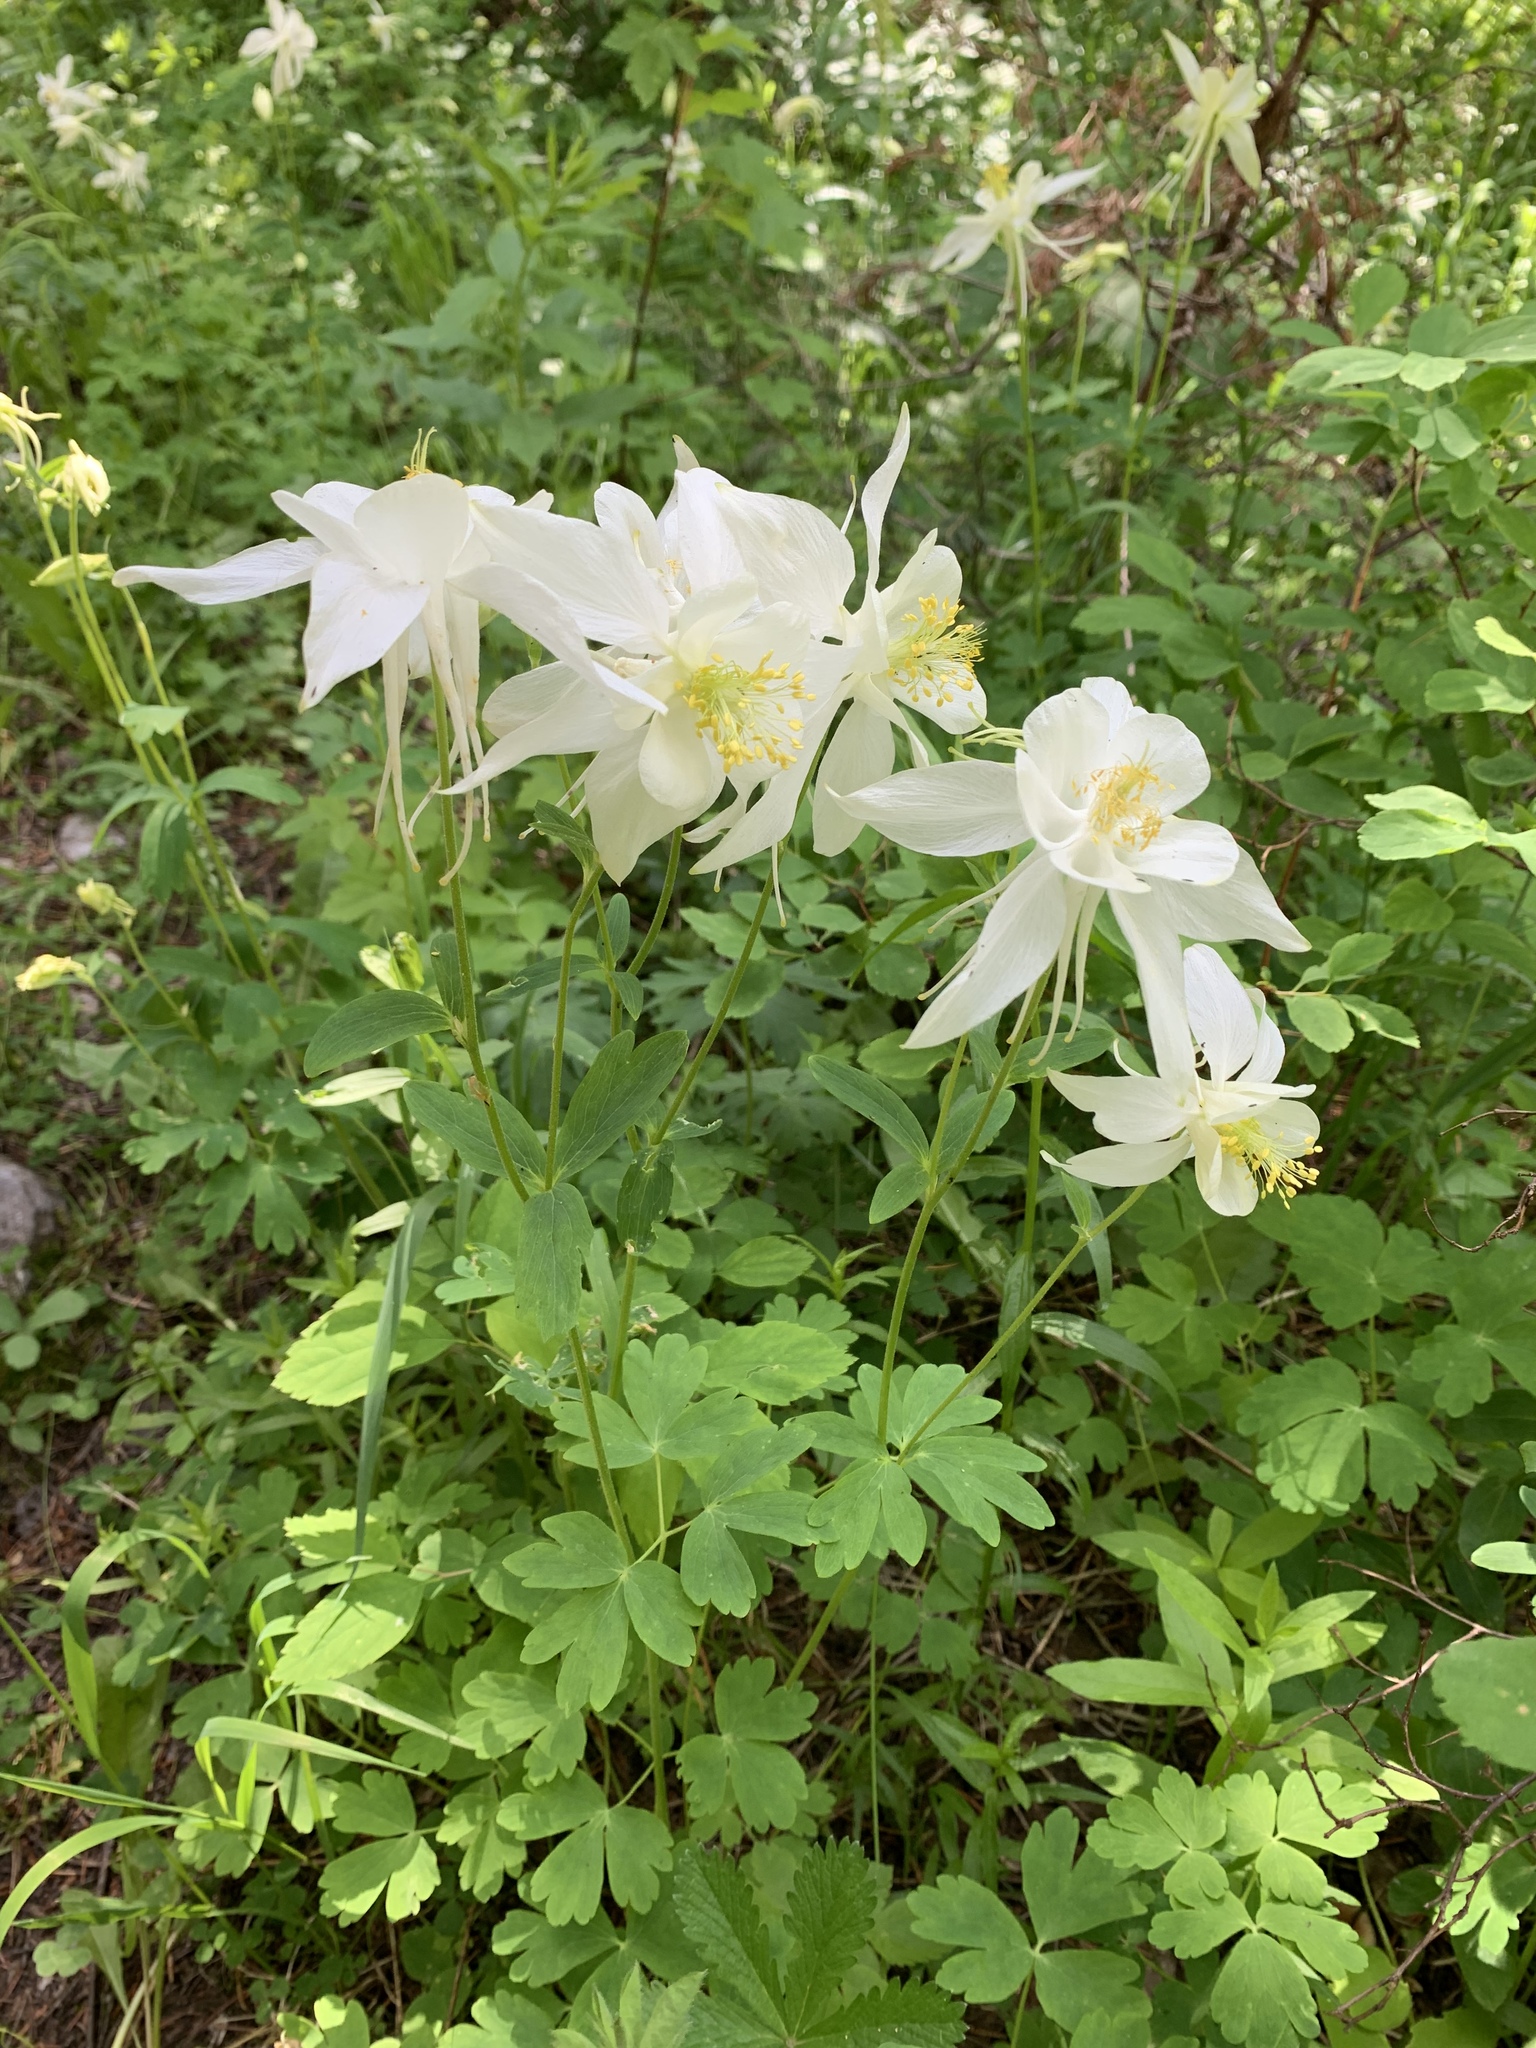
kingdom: Plantae
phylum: Tracheophyta
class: Magnoliopsida
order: Ranunculales
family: Ranunculaceae
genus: Aquilegia
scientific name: Aquilegia coerulea
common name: Rocky mountain columbine
